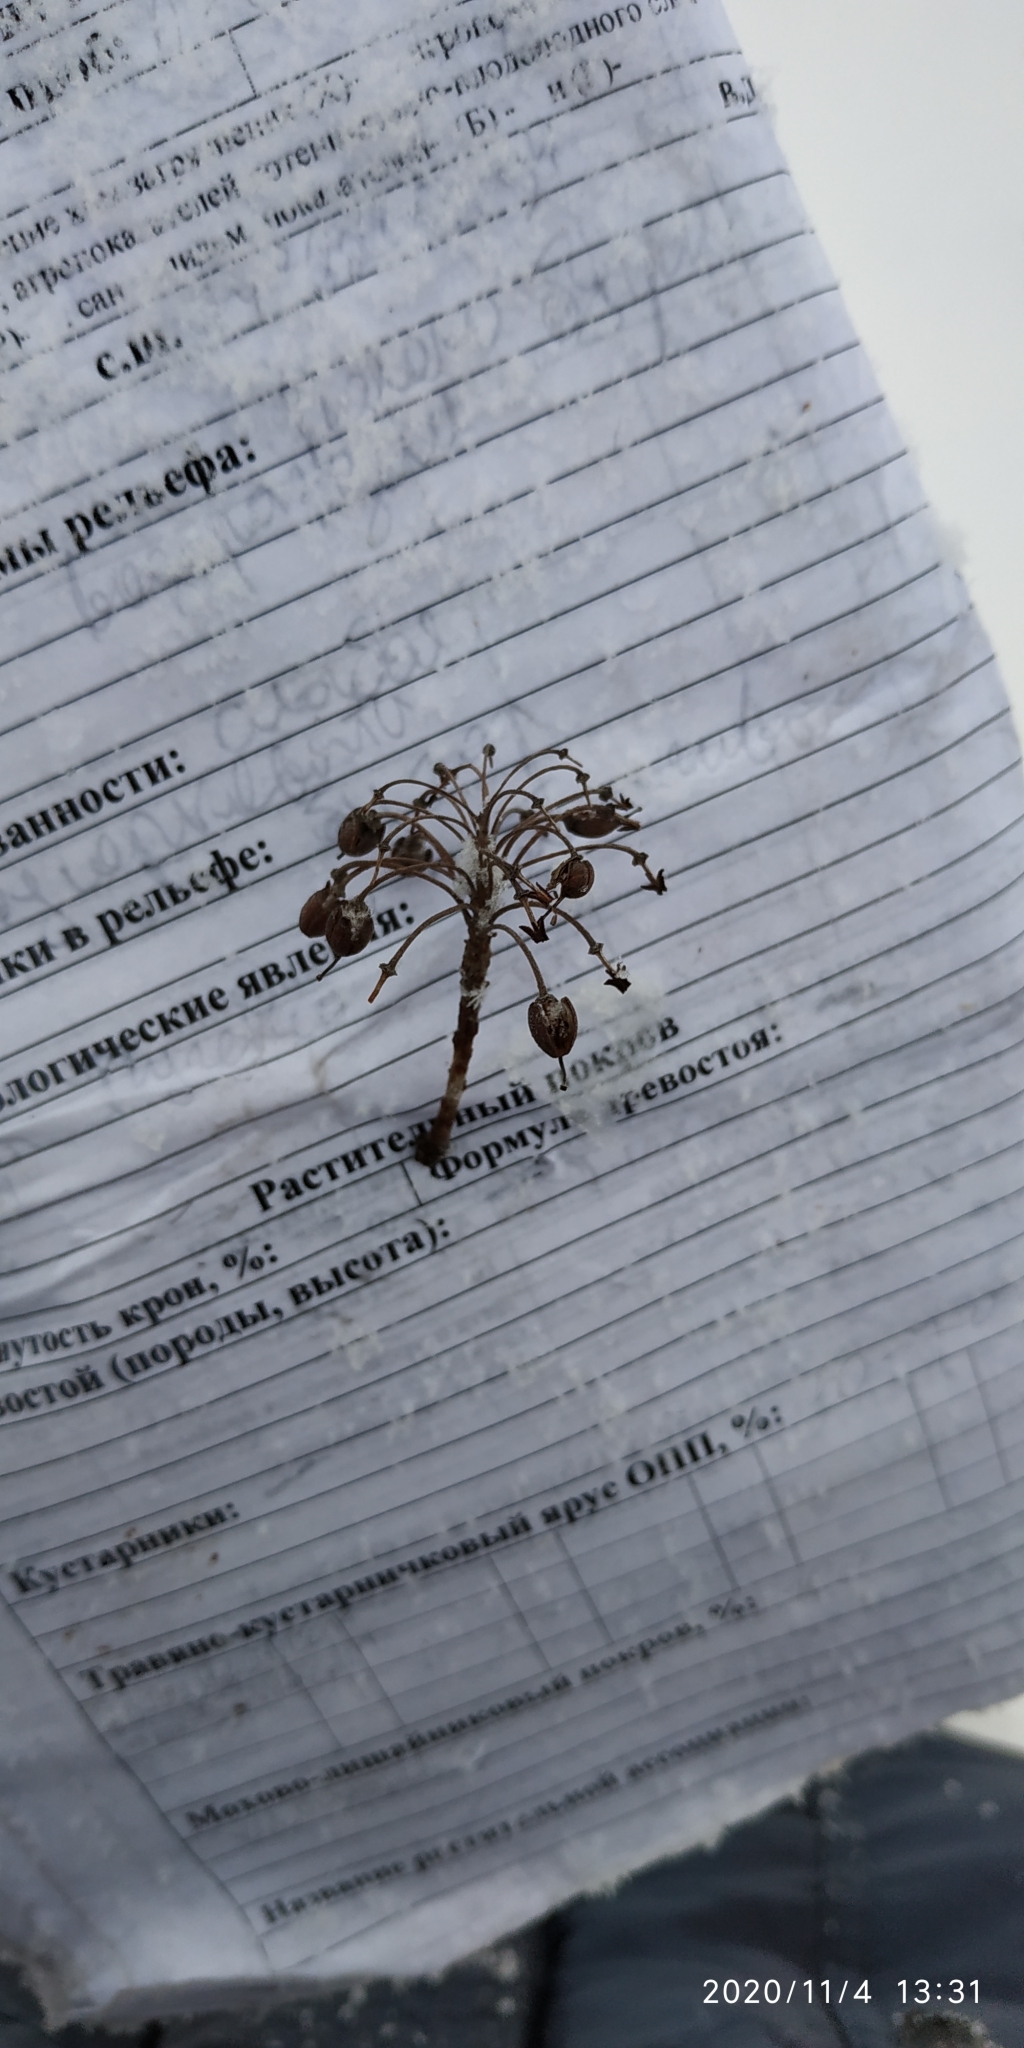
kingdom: Plantae
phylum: Tracheophyta
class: Magnoliopsida
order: Ericales
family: Ericaceae
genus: Rhododendron
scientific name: Rhododendron tomentosum
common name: Marsh labrador tea
